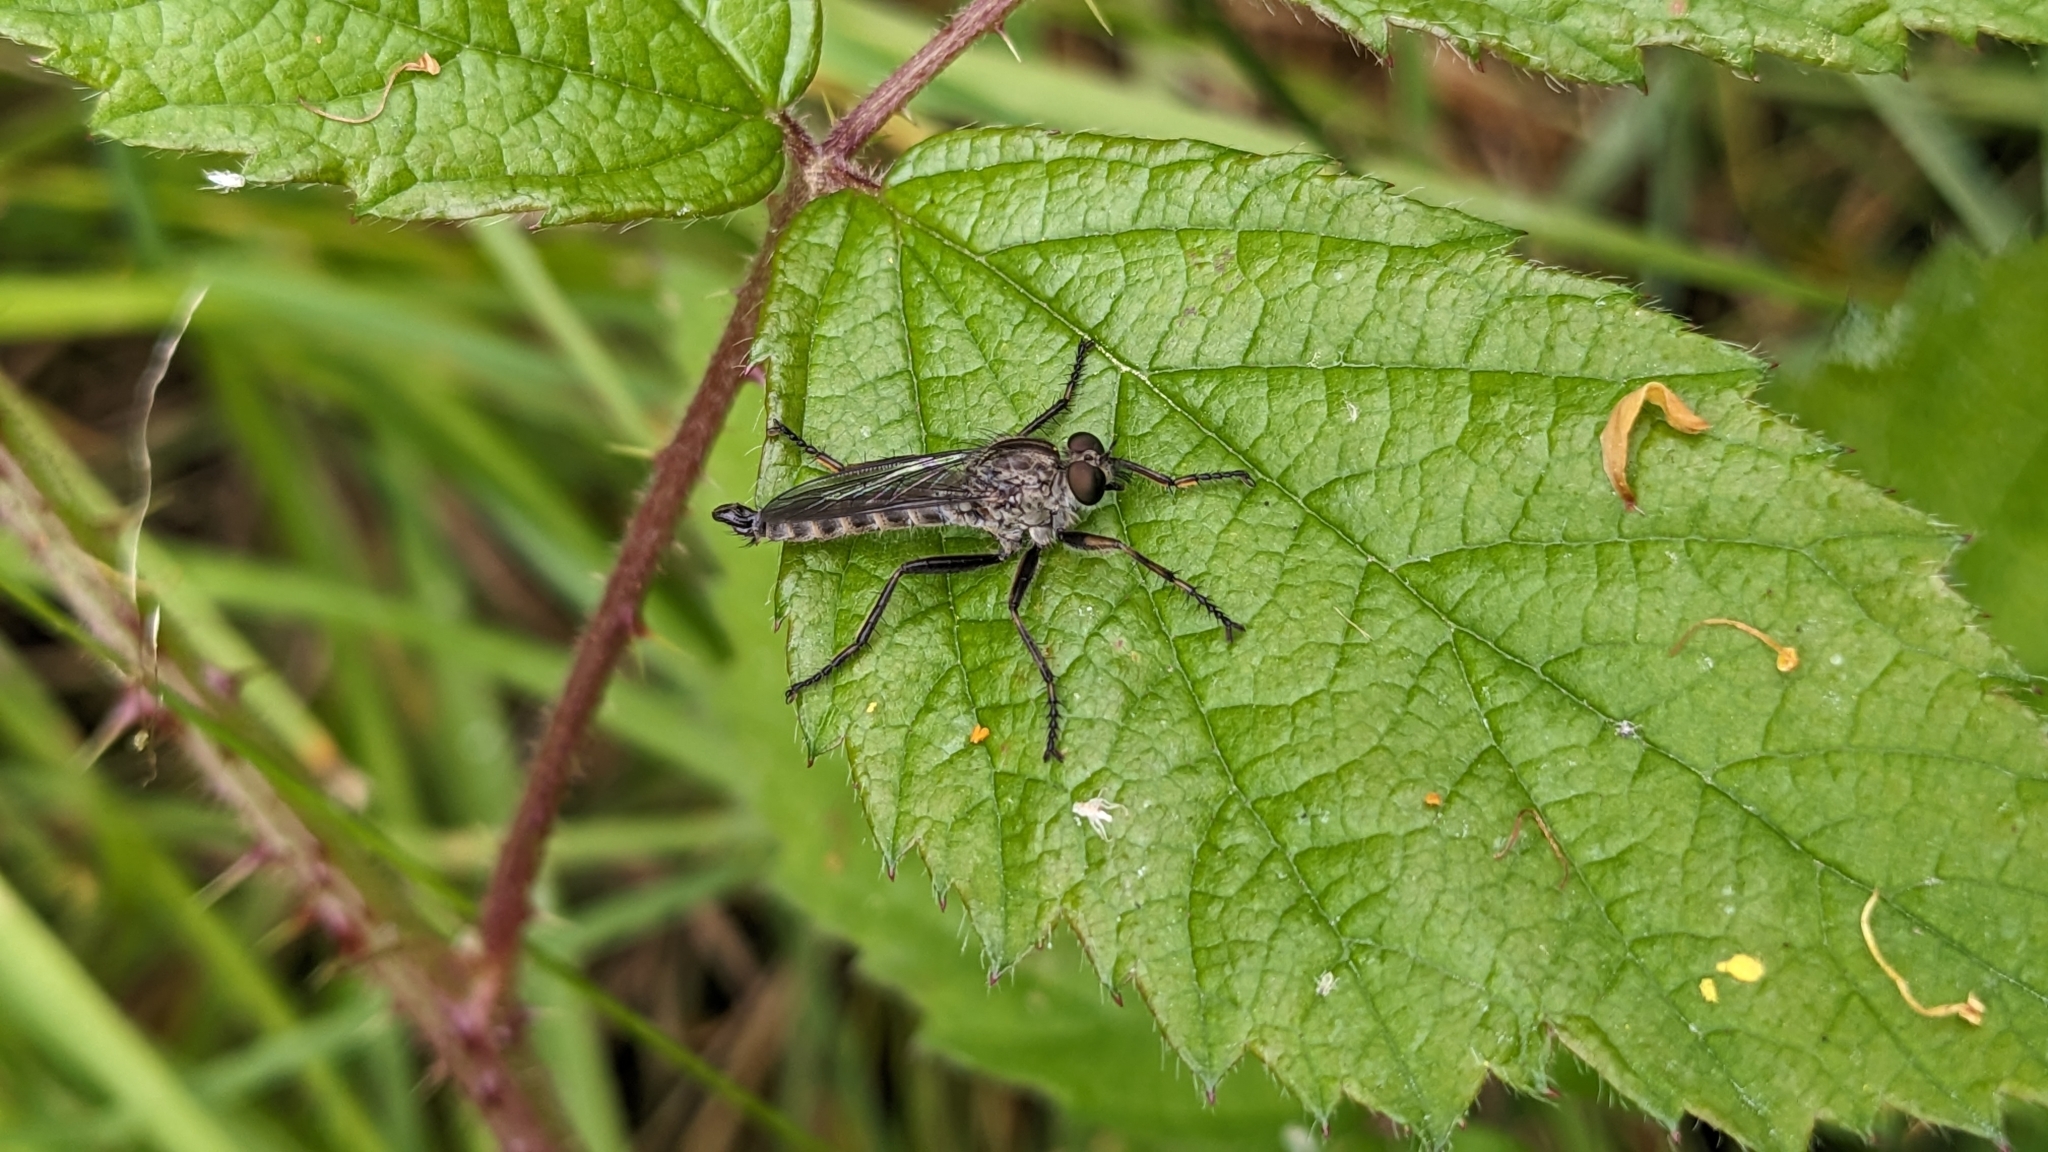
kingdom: Animalia
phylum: Arthropoda
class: Insecta
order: Diptera
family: Asilidae
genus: Machimus
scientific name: Machimus atricapillus
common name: Kite-tailed robberfly
